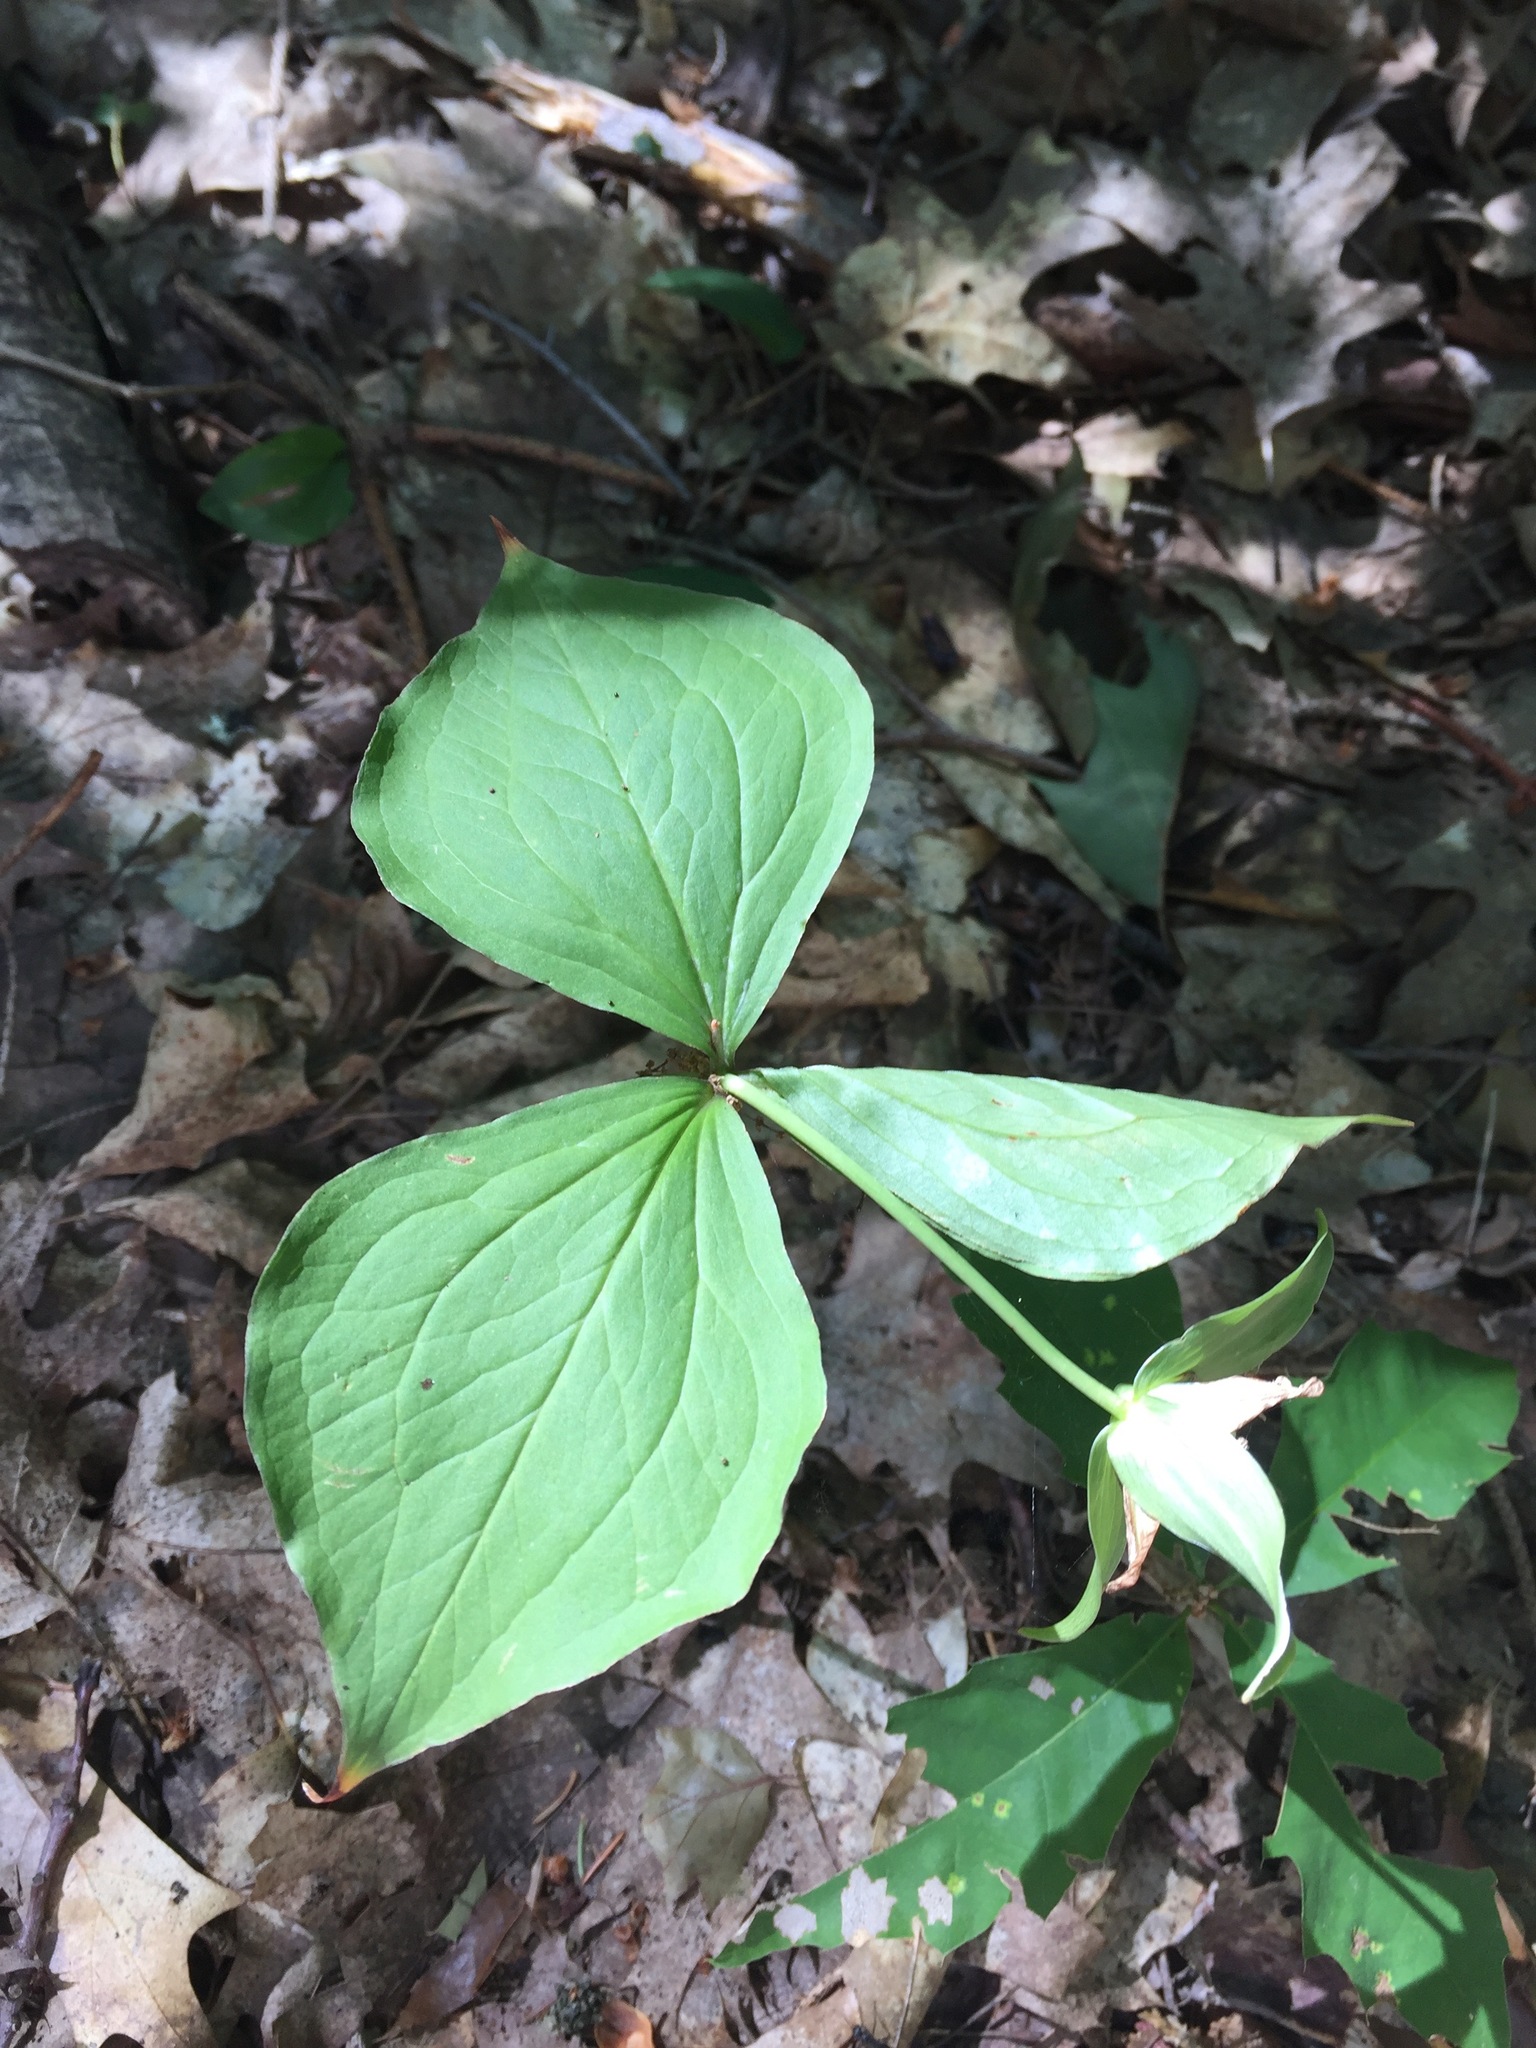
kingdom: Plantae
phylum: Tracheophyta
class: Liliopsida
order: Liliales
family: Melanthiaceae
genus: Trillium
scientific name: Trillium grandiflorum
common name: Great white trillium
